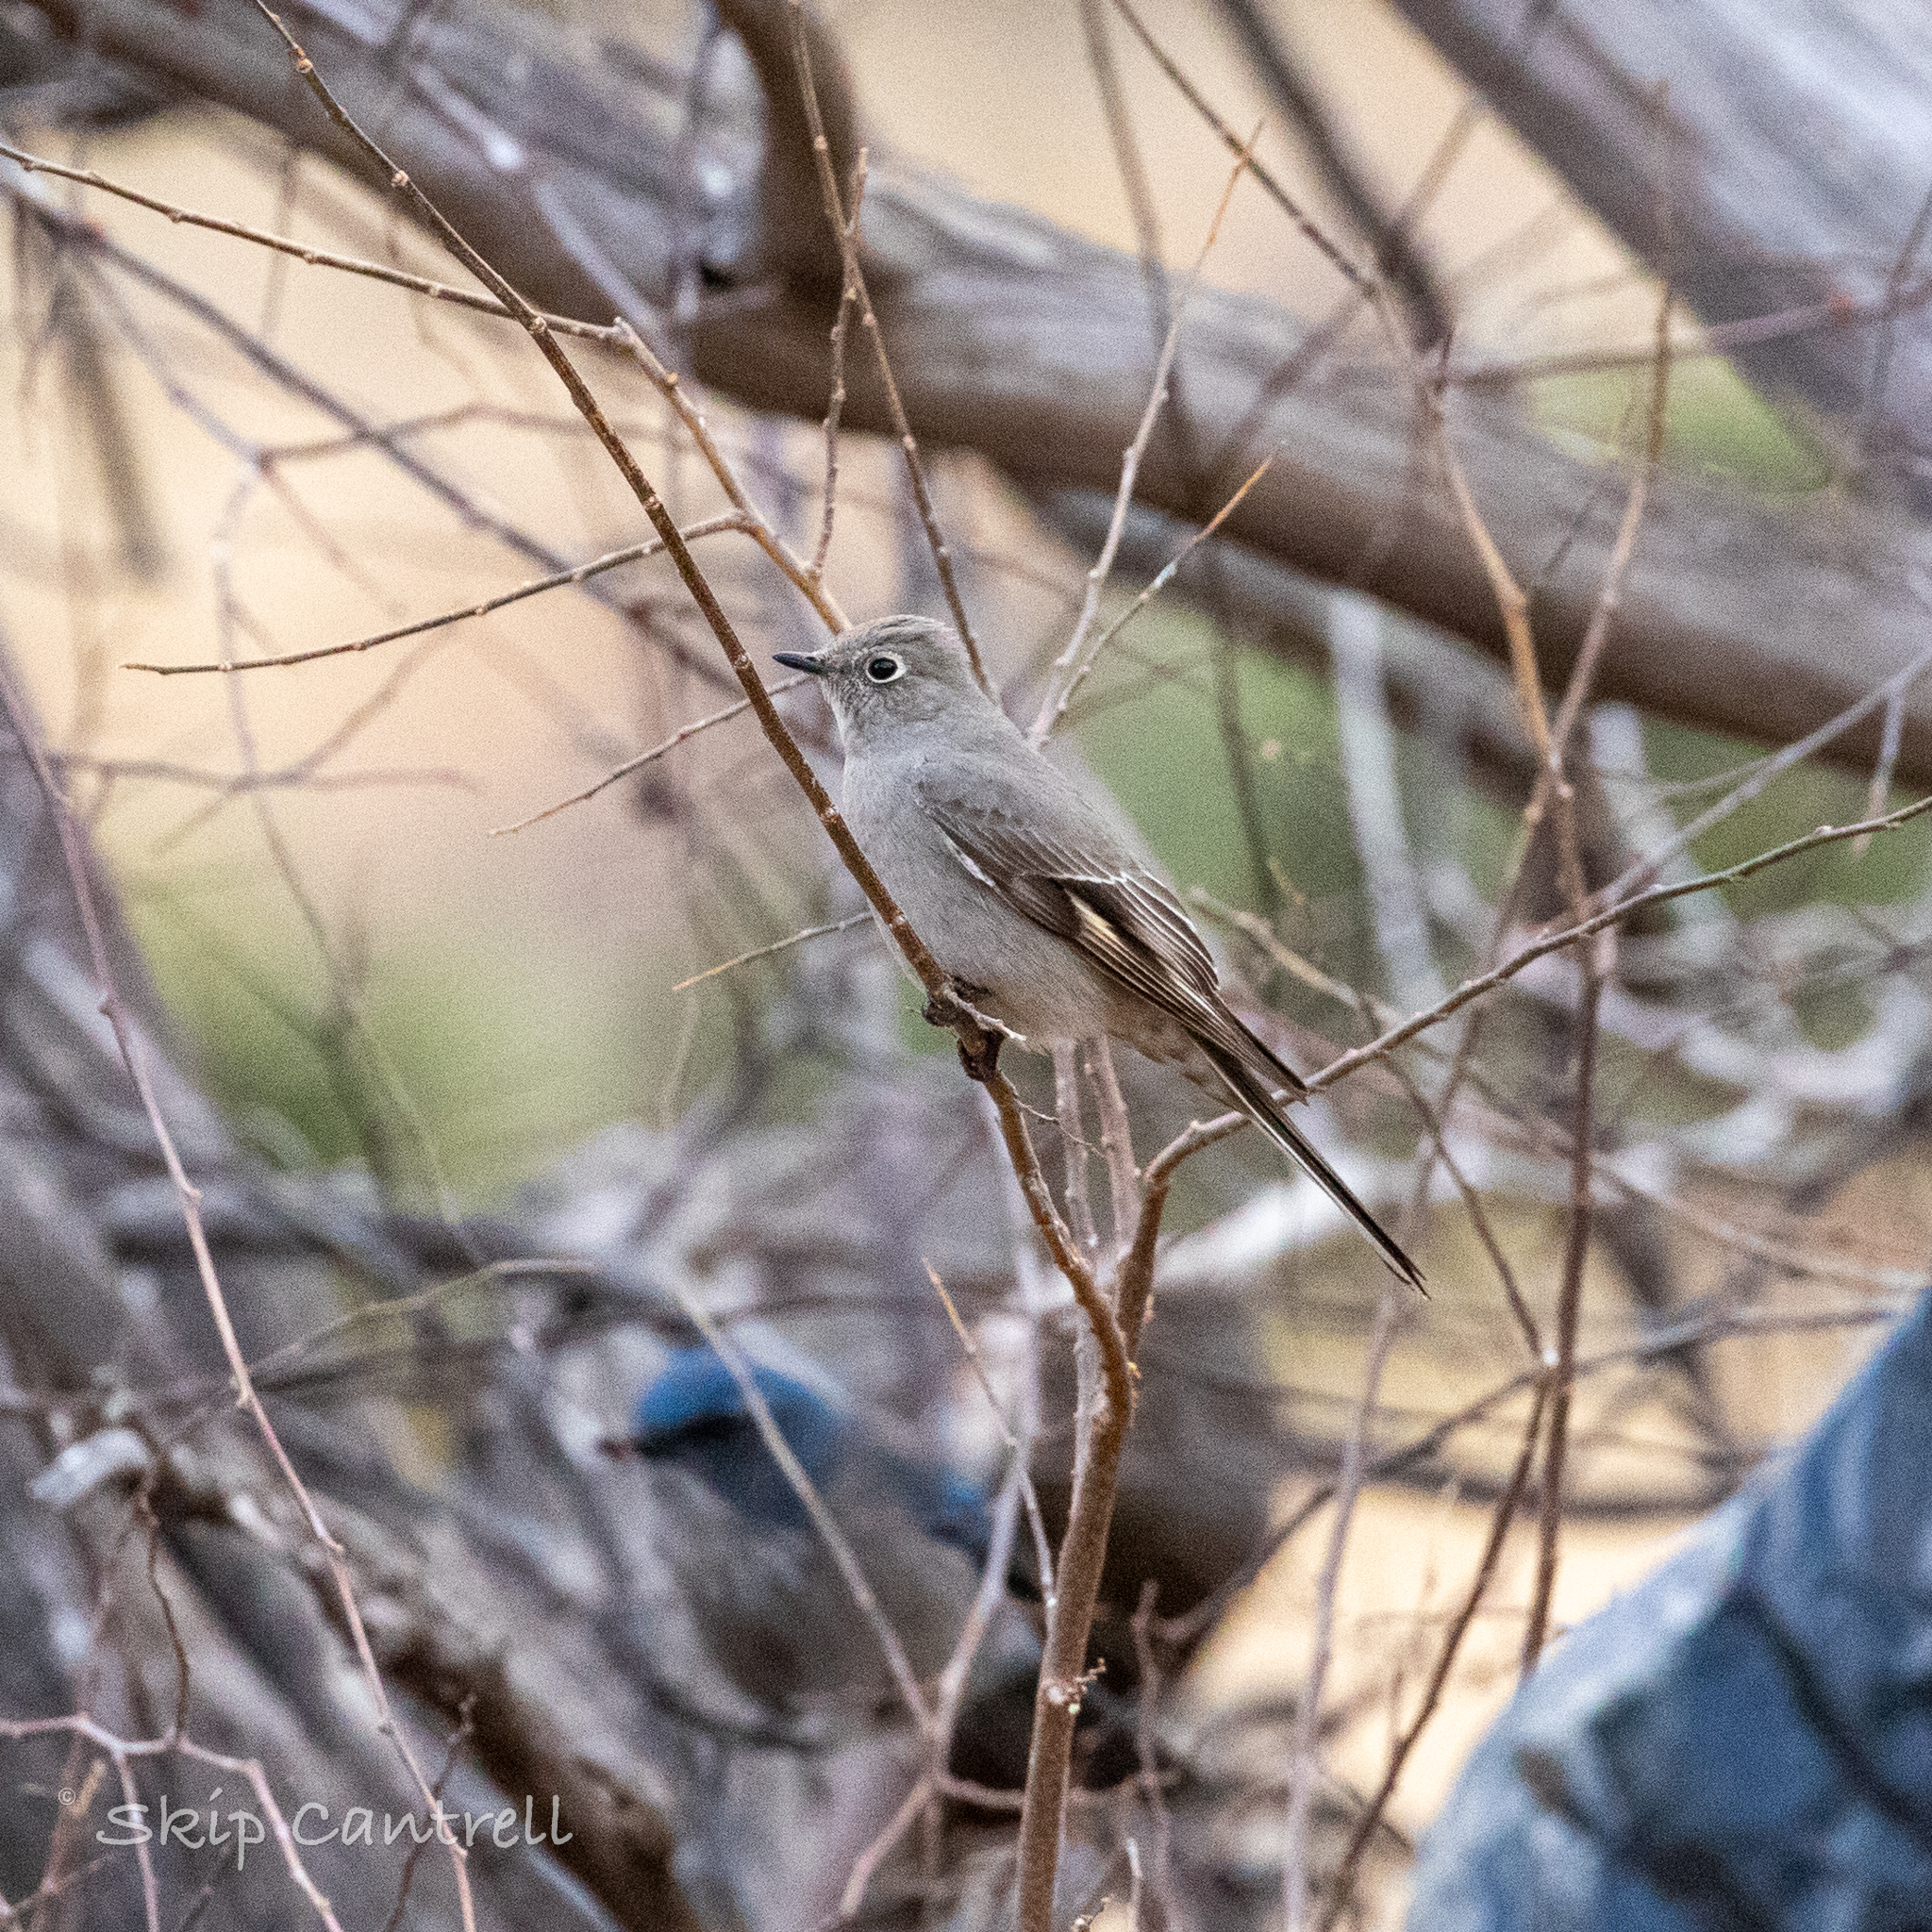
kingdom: Animalia
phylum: Chordata
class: Aves
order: Passeriformes
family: Turdidae
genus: Myadestes
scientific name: Myadestes townsendi
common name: Townsend's solitaire
